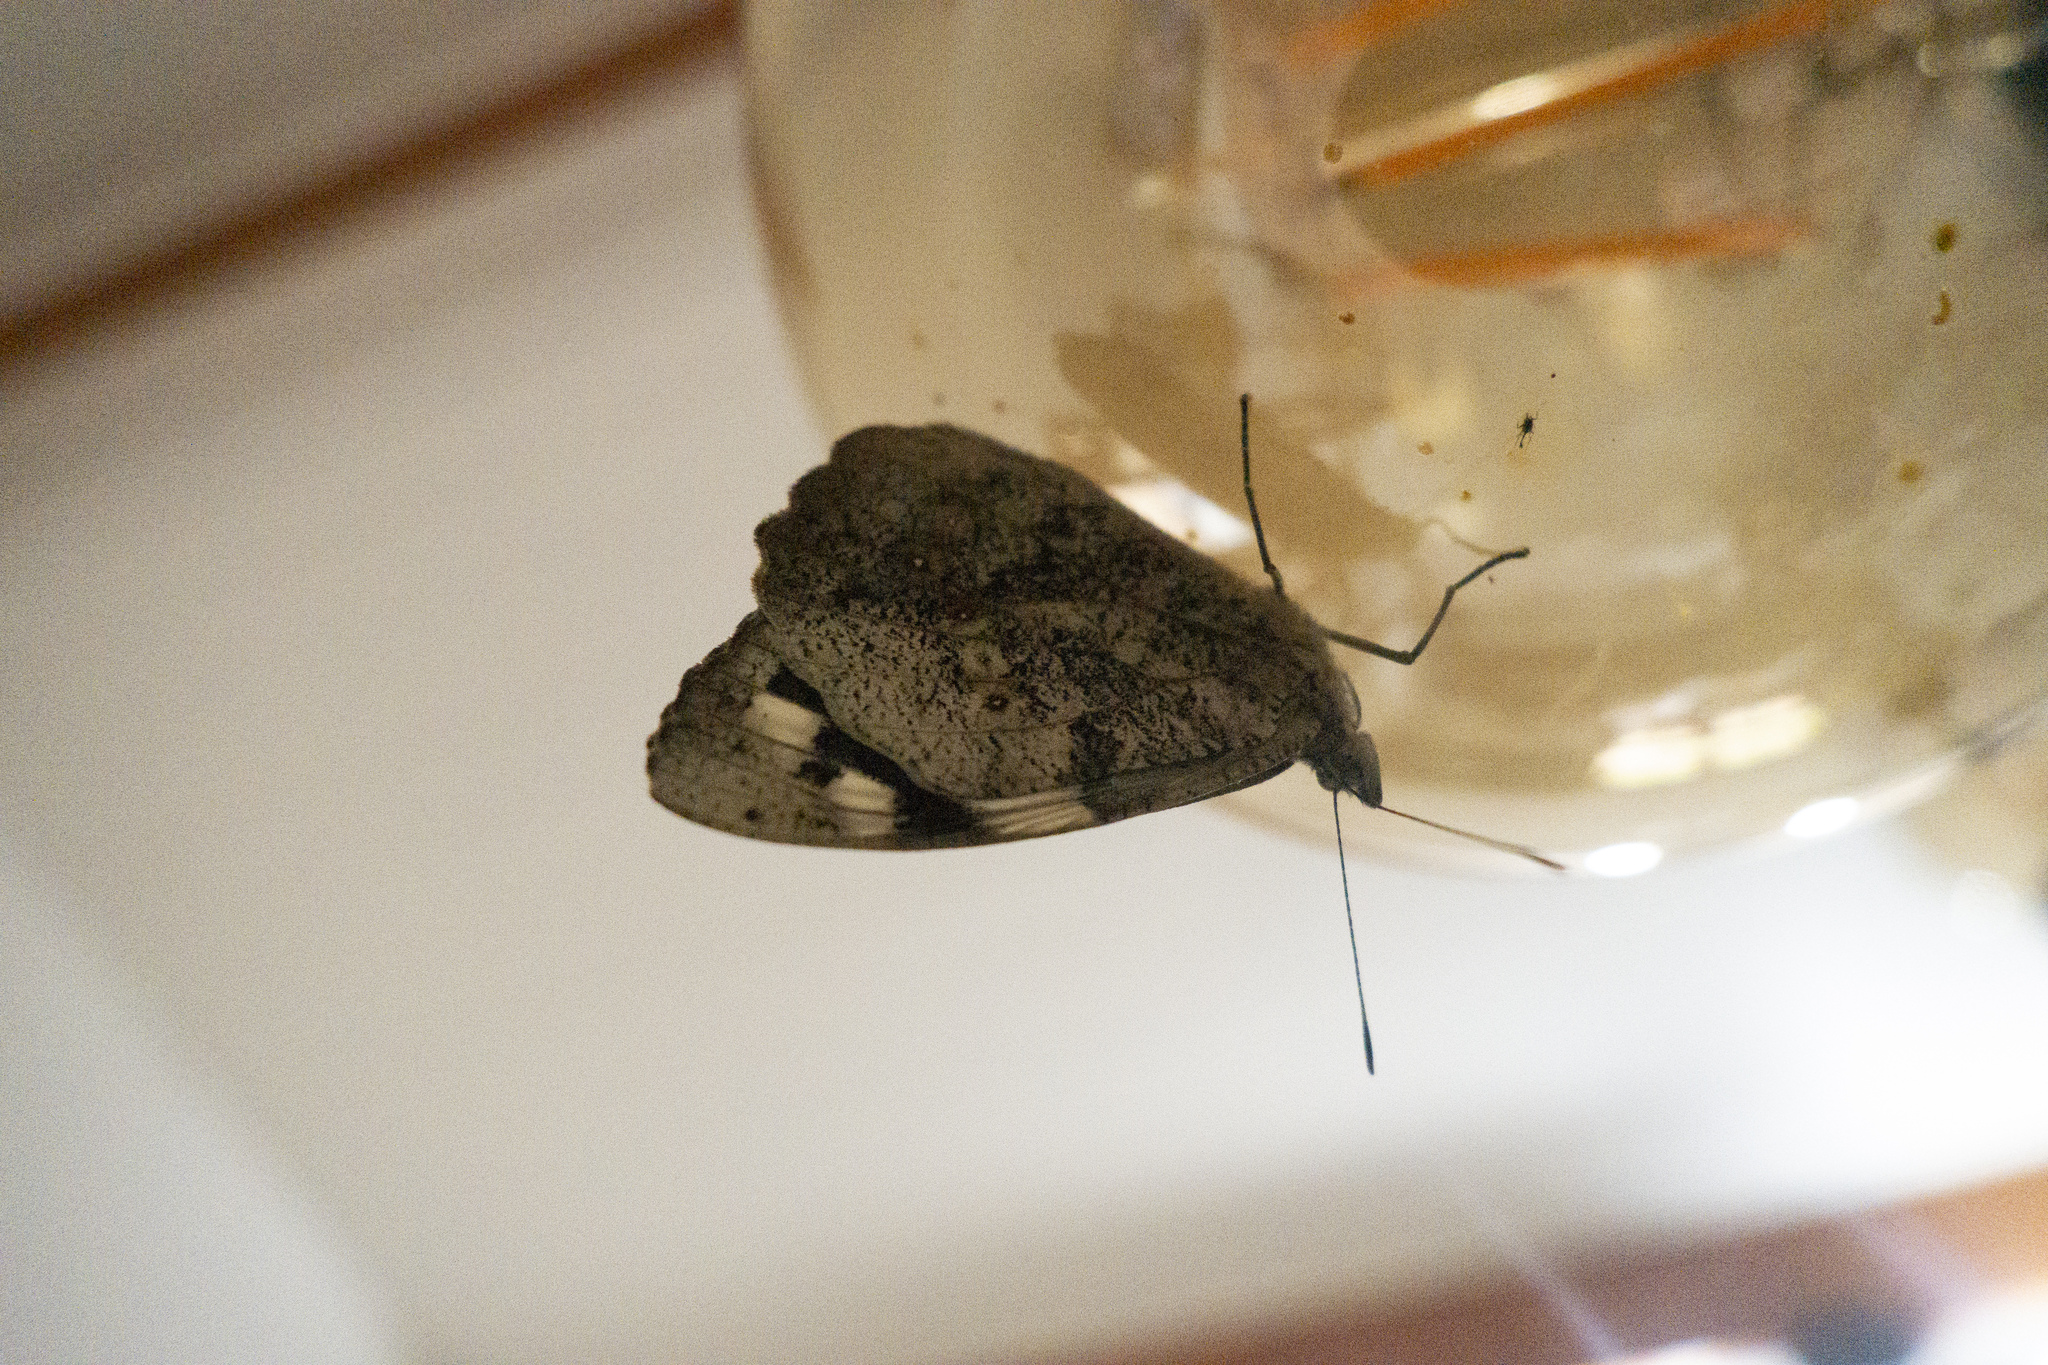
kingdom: Animalia
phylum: Arthropoda
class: Insecta
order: Lepidoptera
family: Nymphalidae
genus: Eunica
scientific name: Eunica eburnea
